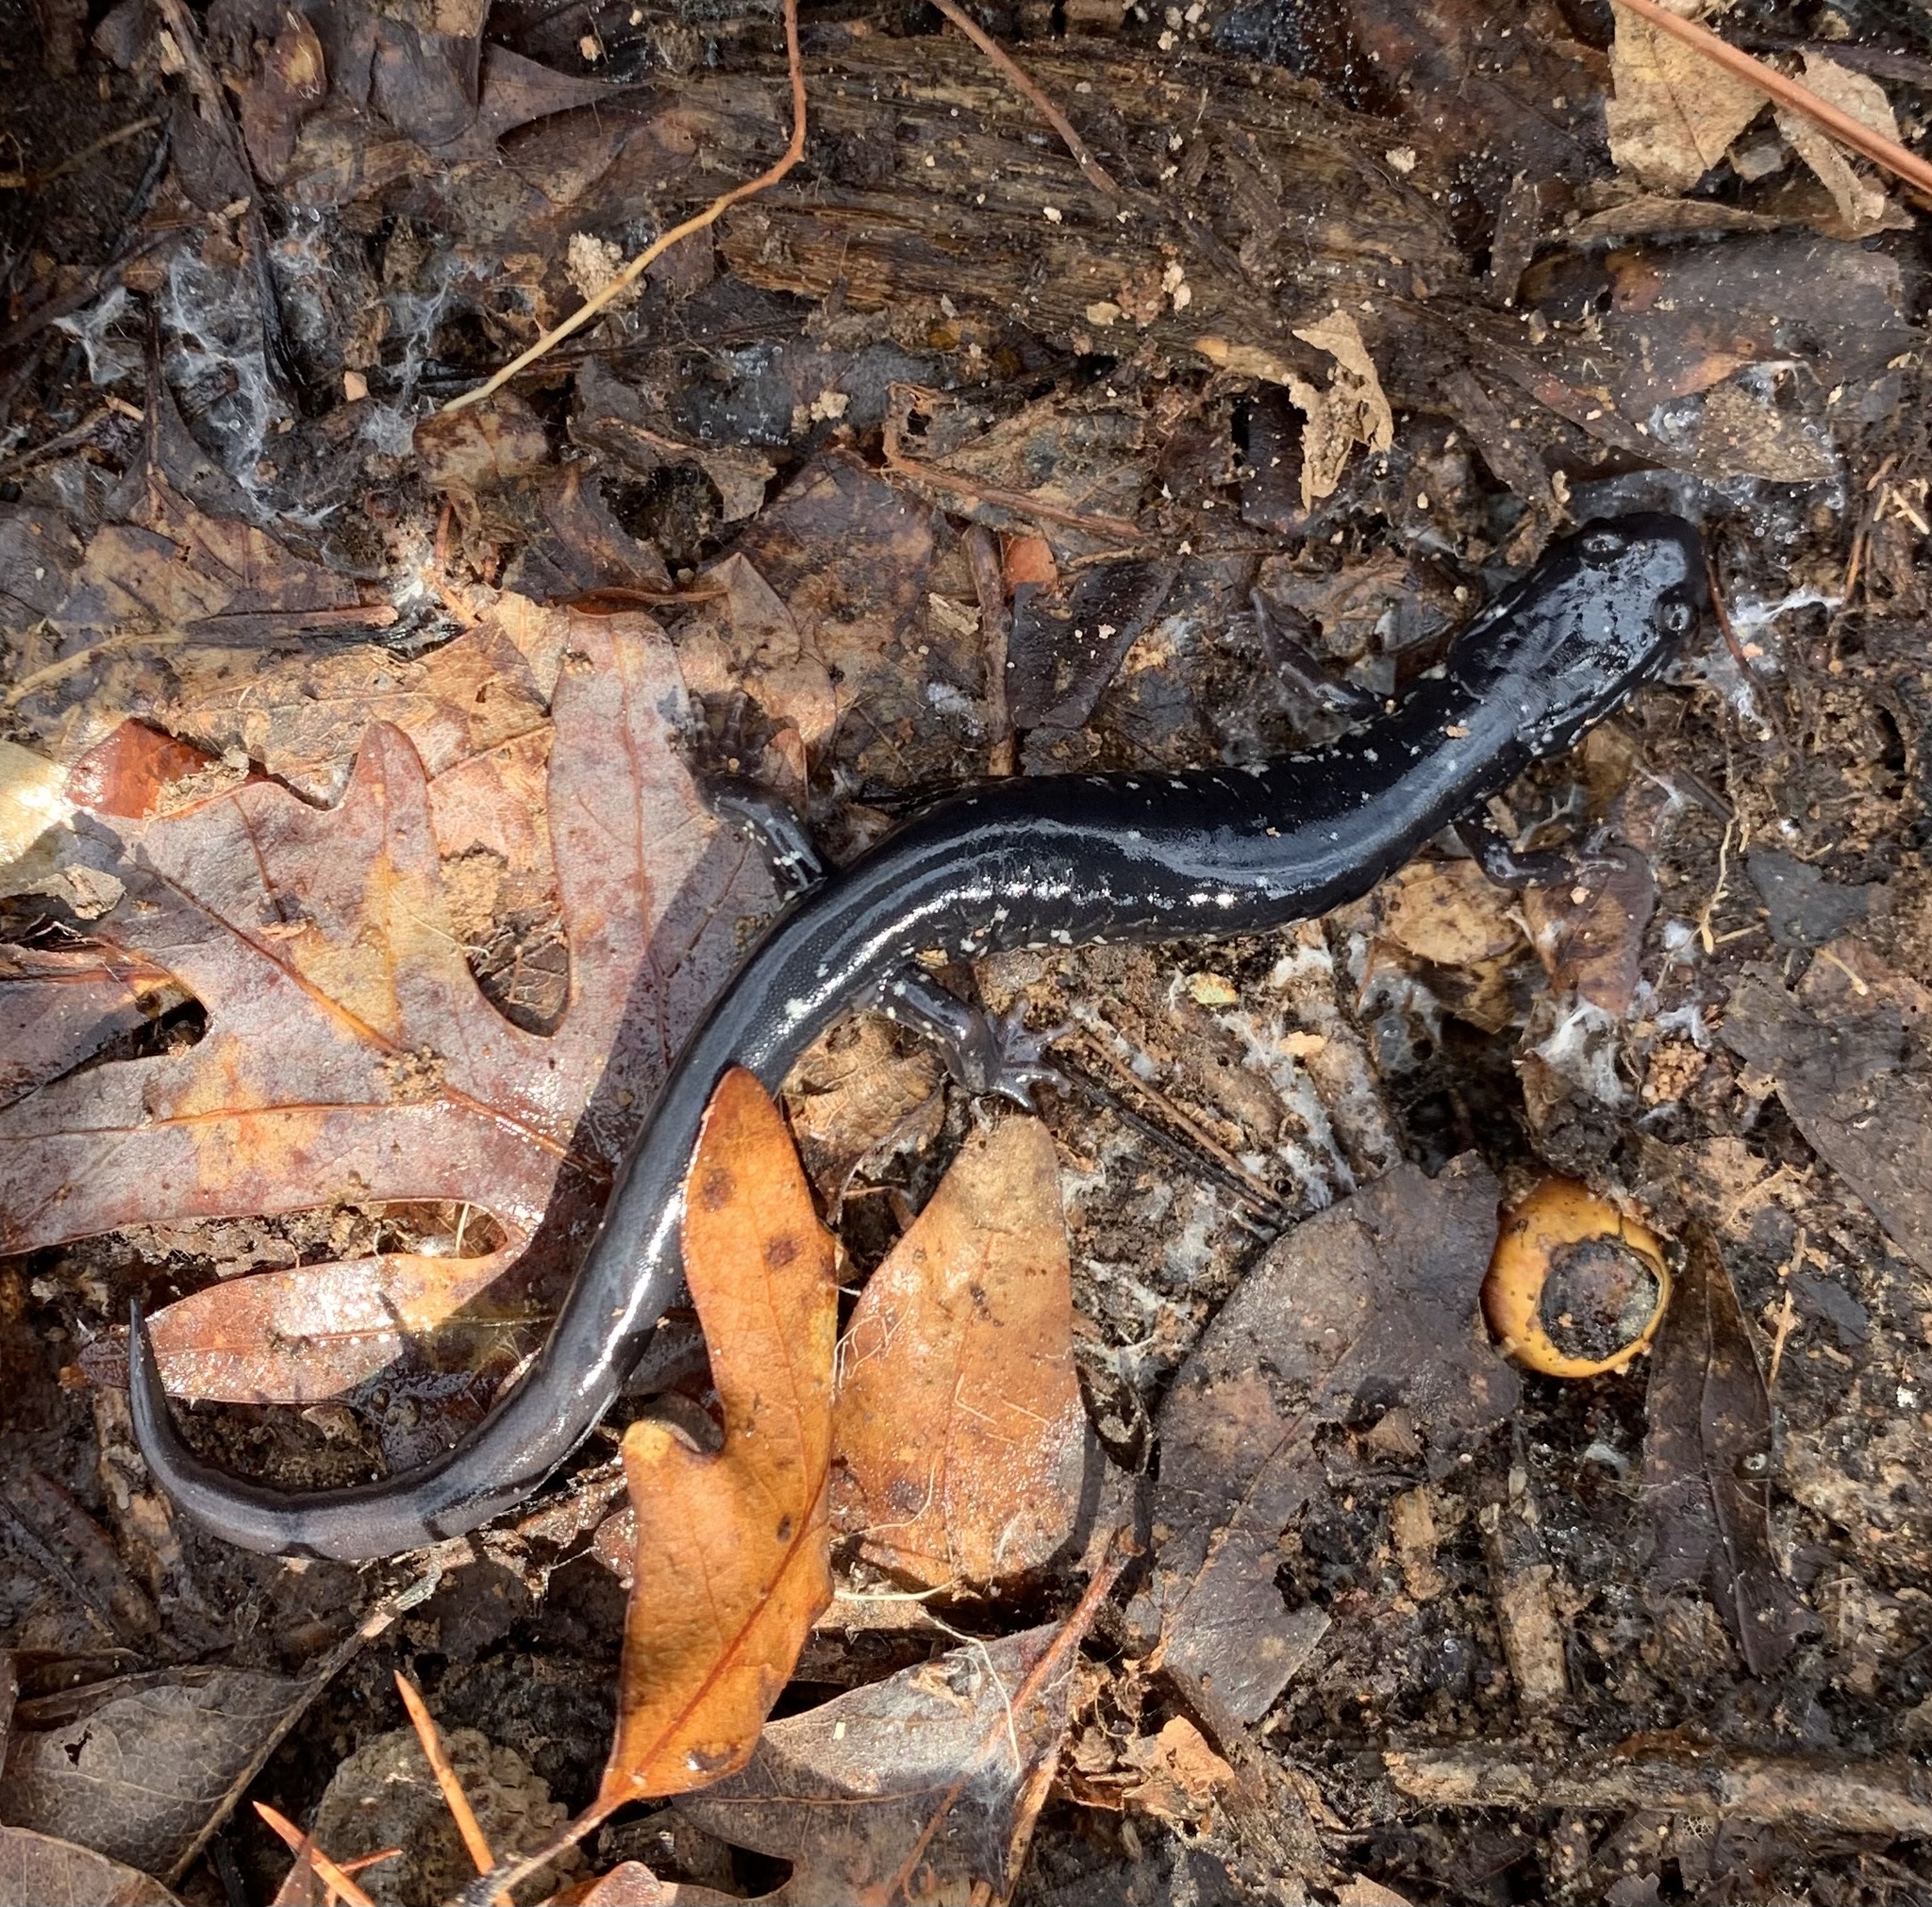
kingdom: Animalia
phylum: Chordata
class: Amphibia
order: Caudata
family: Plethodontidae
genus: Plethodon
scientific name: Plethodon cylindraceus
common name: White-spotted slimy salamander
